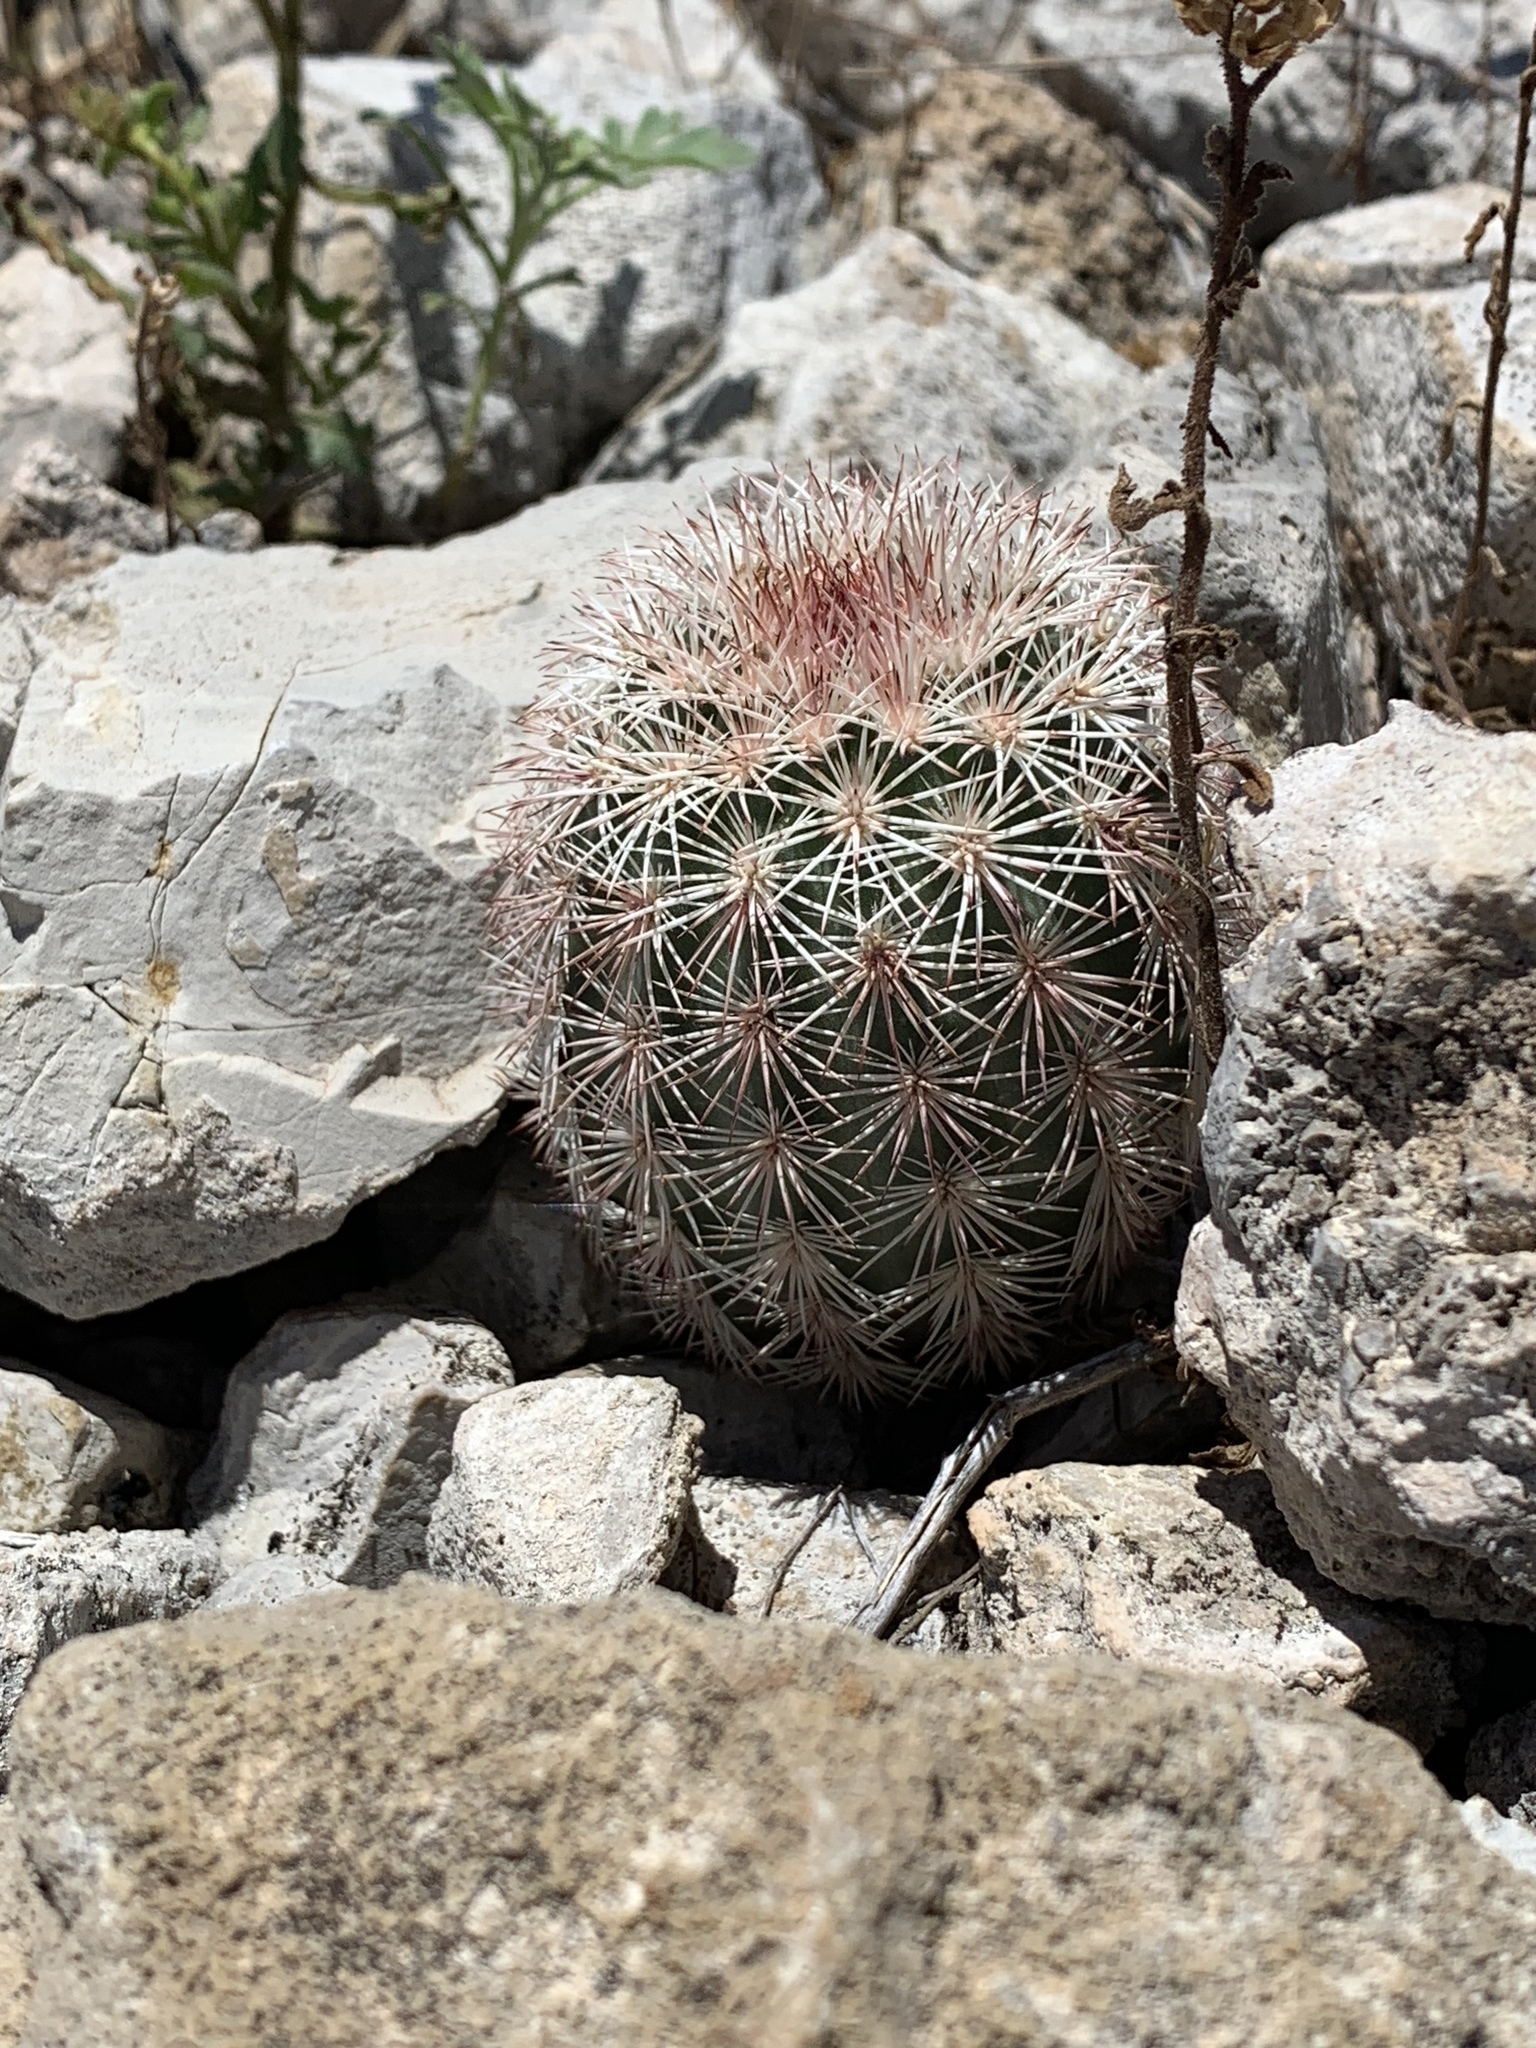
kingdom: Plantae
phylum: Tracheophyta
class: Magnoliopsida
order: Caryophyllales
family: Cactaceae
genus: Echinocereus
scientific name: Echinocereus dasyacanthus
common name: Spiny hedgehog cactus
